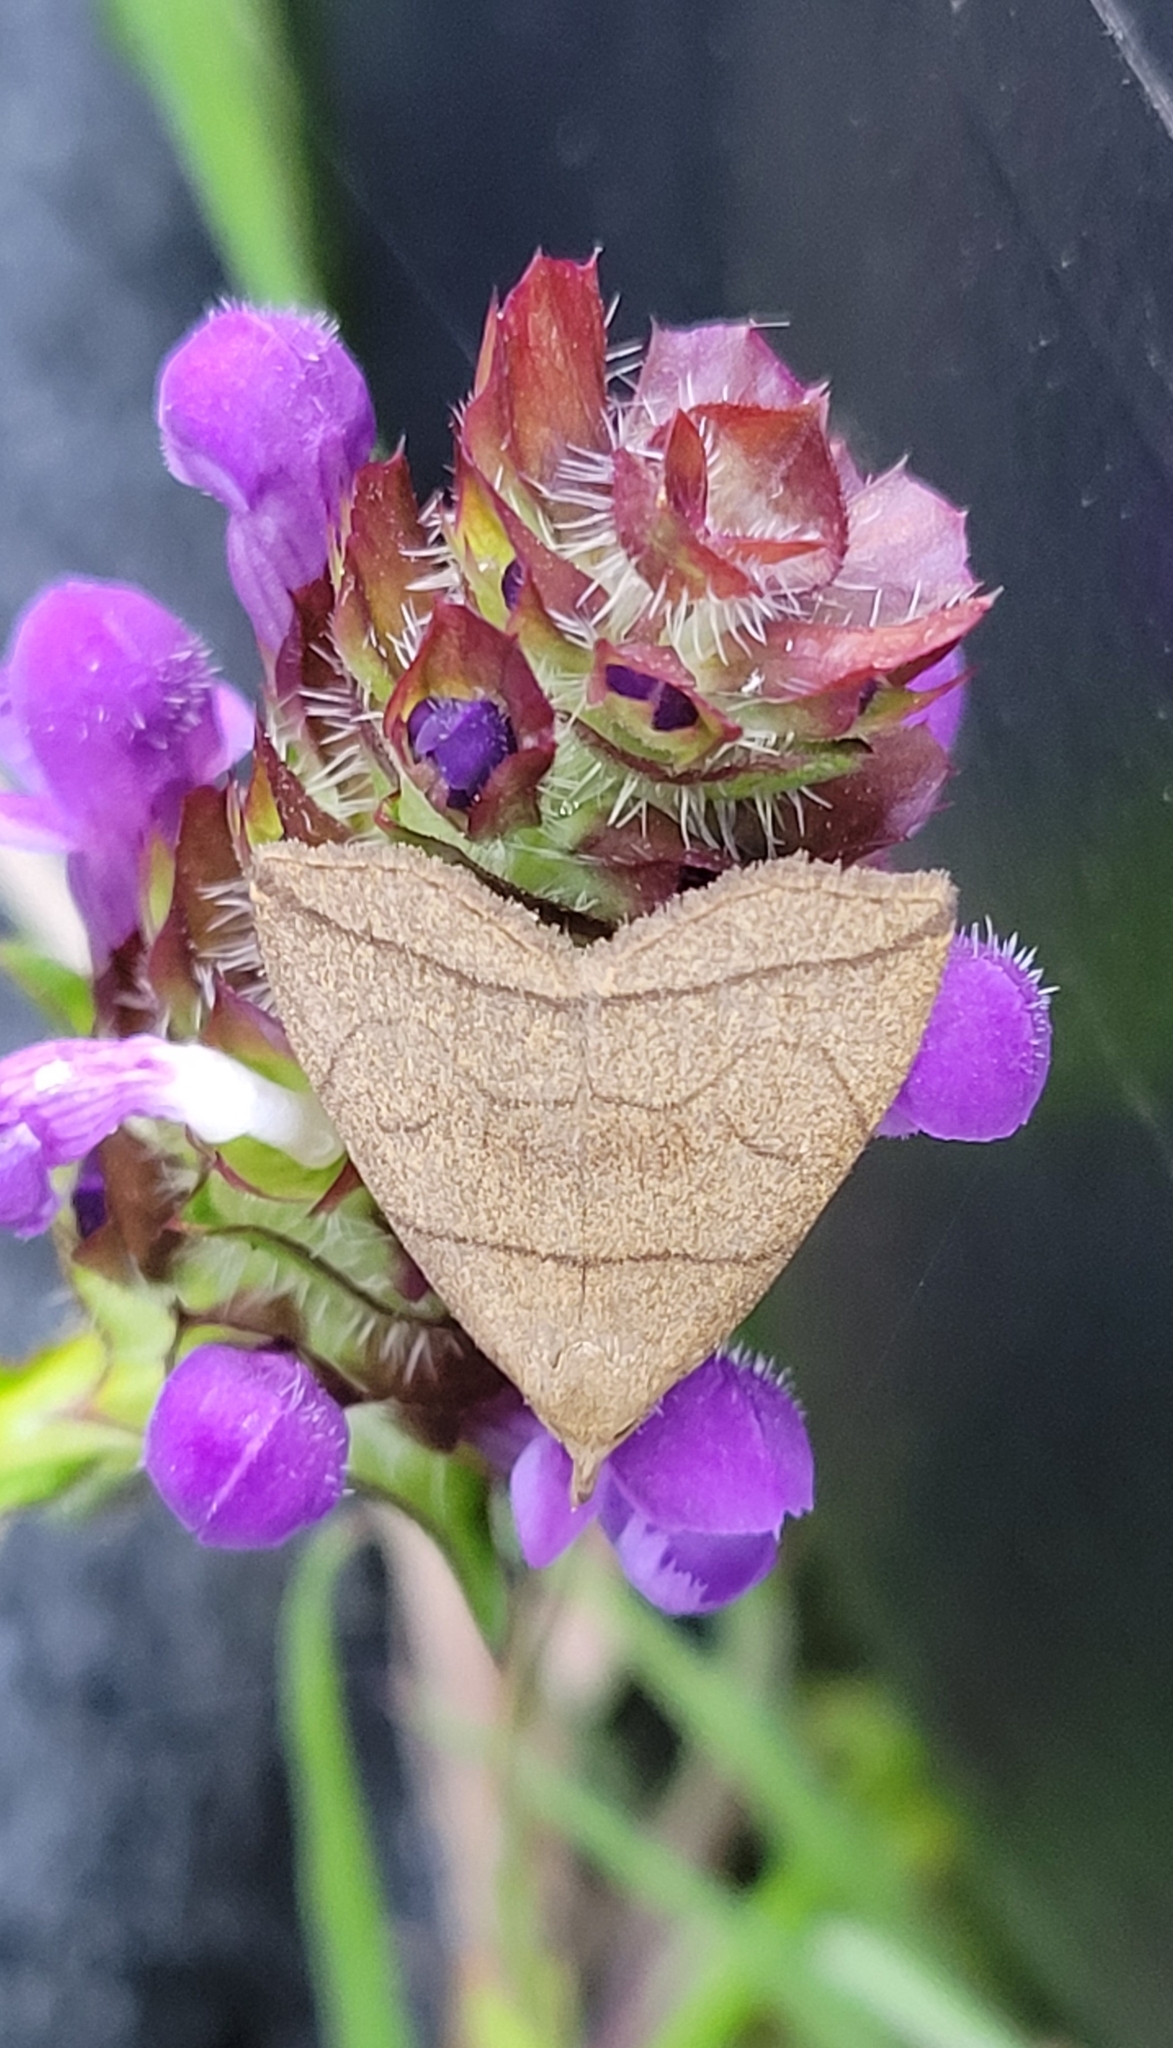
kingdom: Animalia
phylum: Arthropoda
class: Insecta
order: Lepidoptera
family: Erebidae
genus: Herminia
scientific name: Herminia grisealis
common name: Small fan-foot
